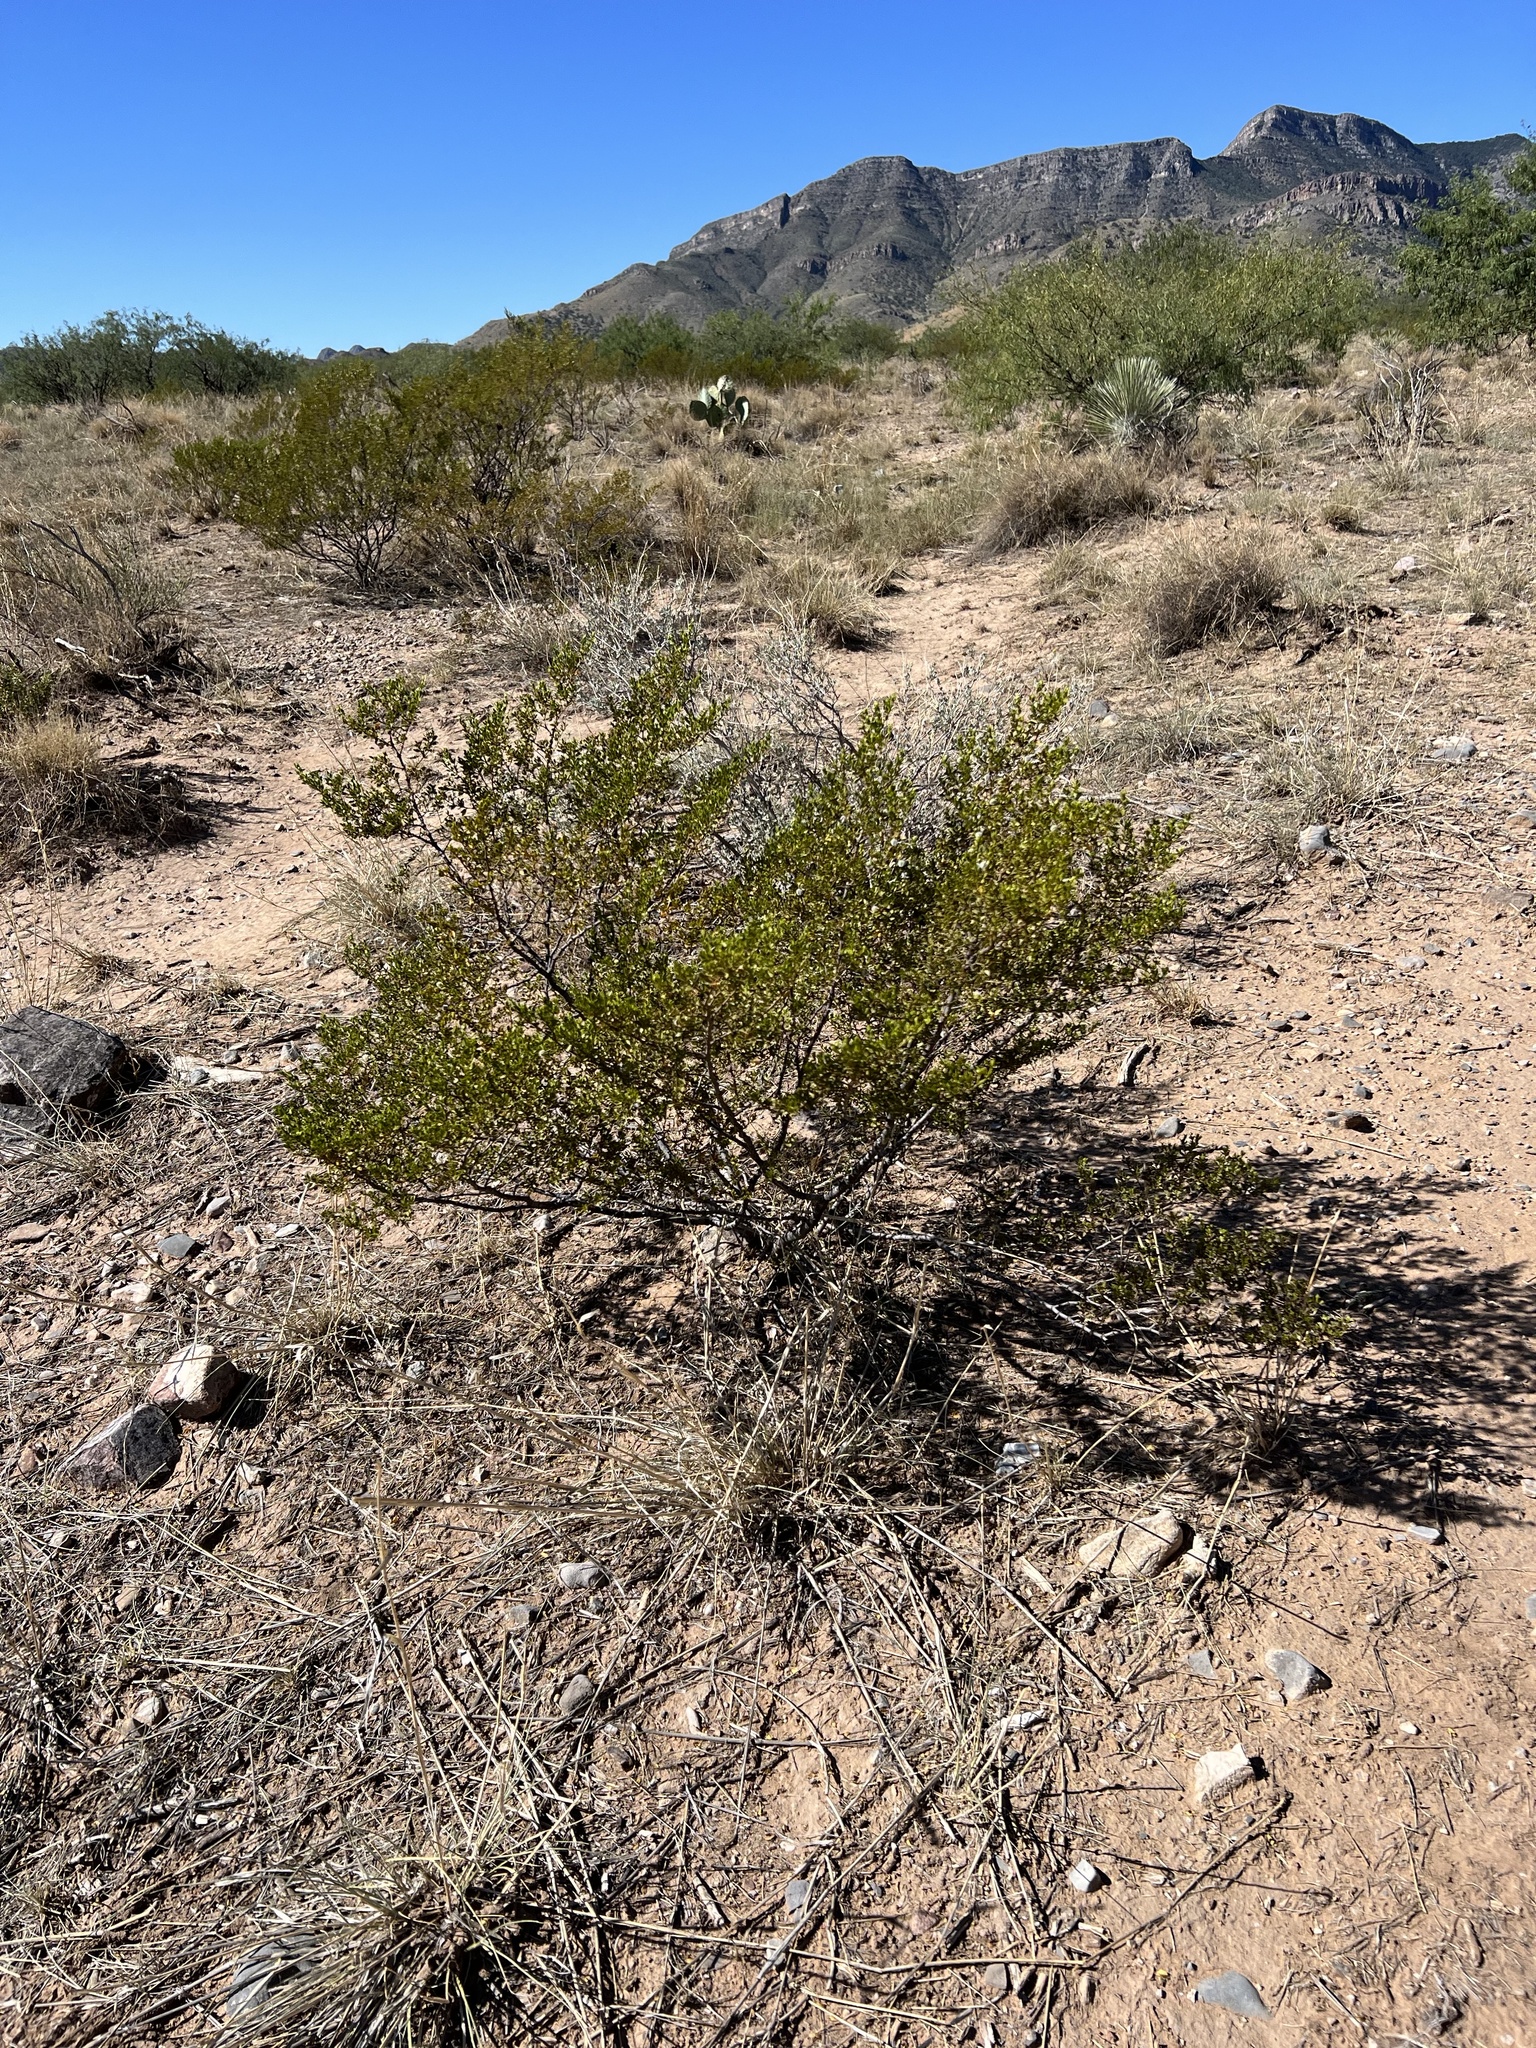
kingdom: Plantae
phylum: Tracheophyta
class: Magnoliopsida
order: Zygophyllales
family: Zygophyllaceae
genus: Larrea
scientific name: Larrea tridentata
